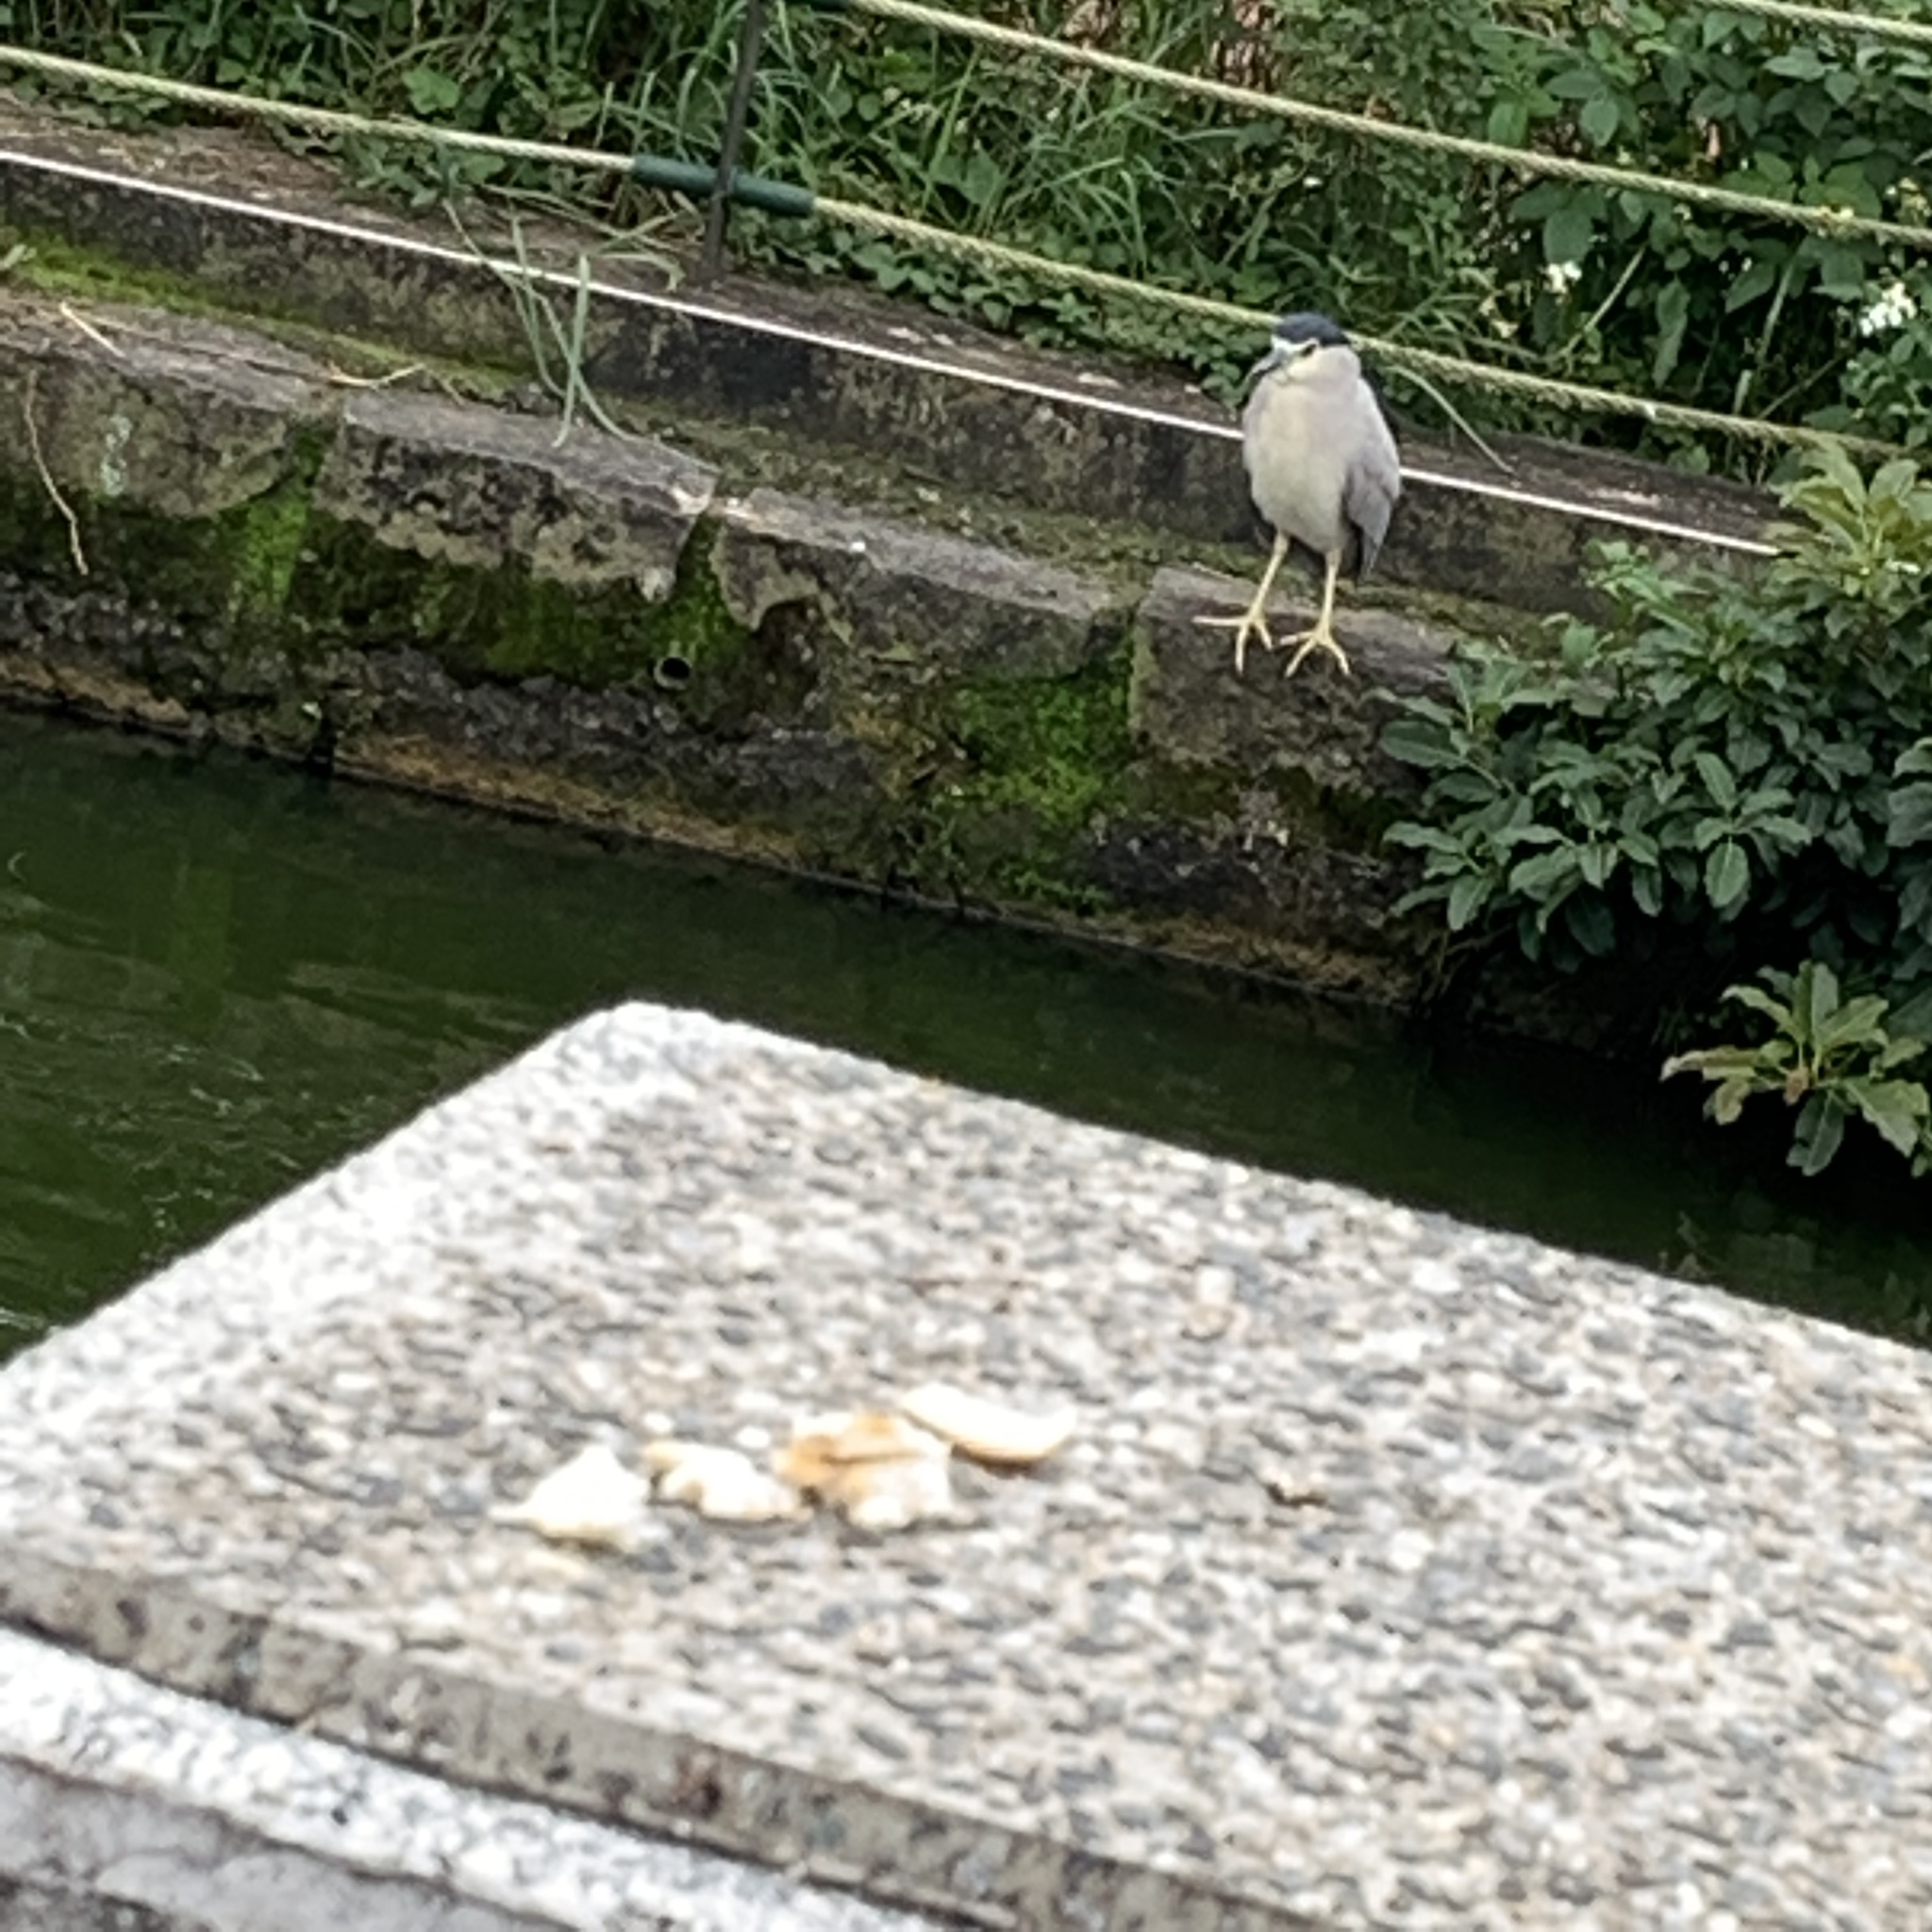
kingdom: Animalia
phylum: Chordata
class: Aves
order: Pelecaniformes
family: Ardeidae
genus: Nycticorax
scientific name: Nycticorax nycticorax
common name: Black-crowned night heron
